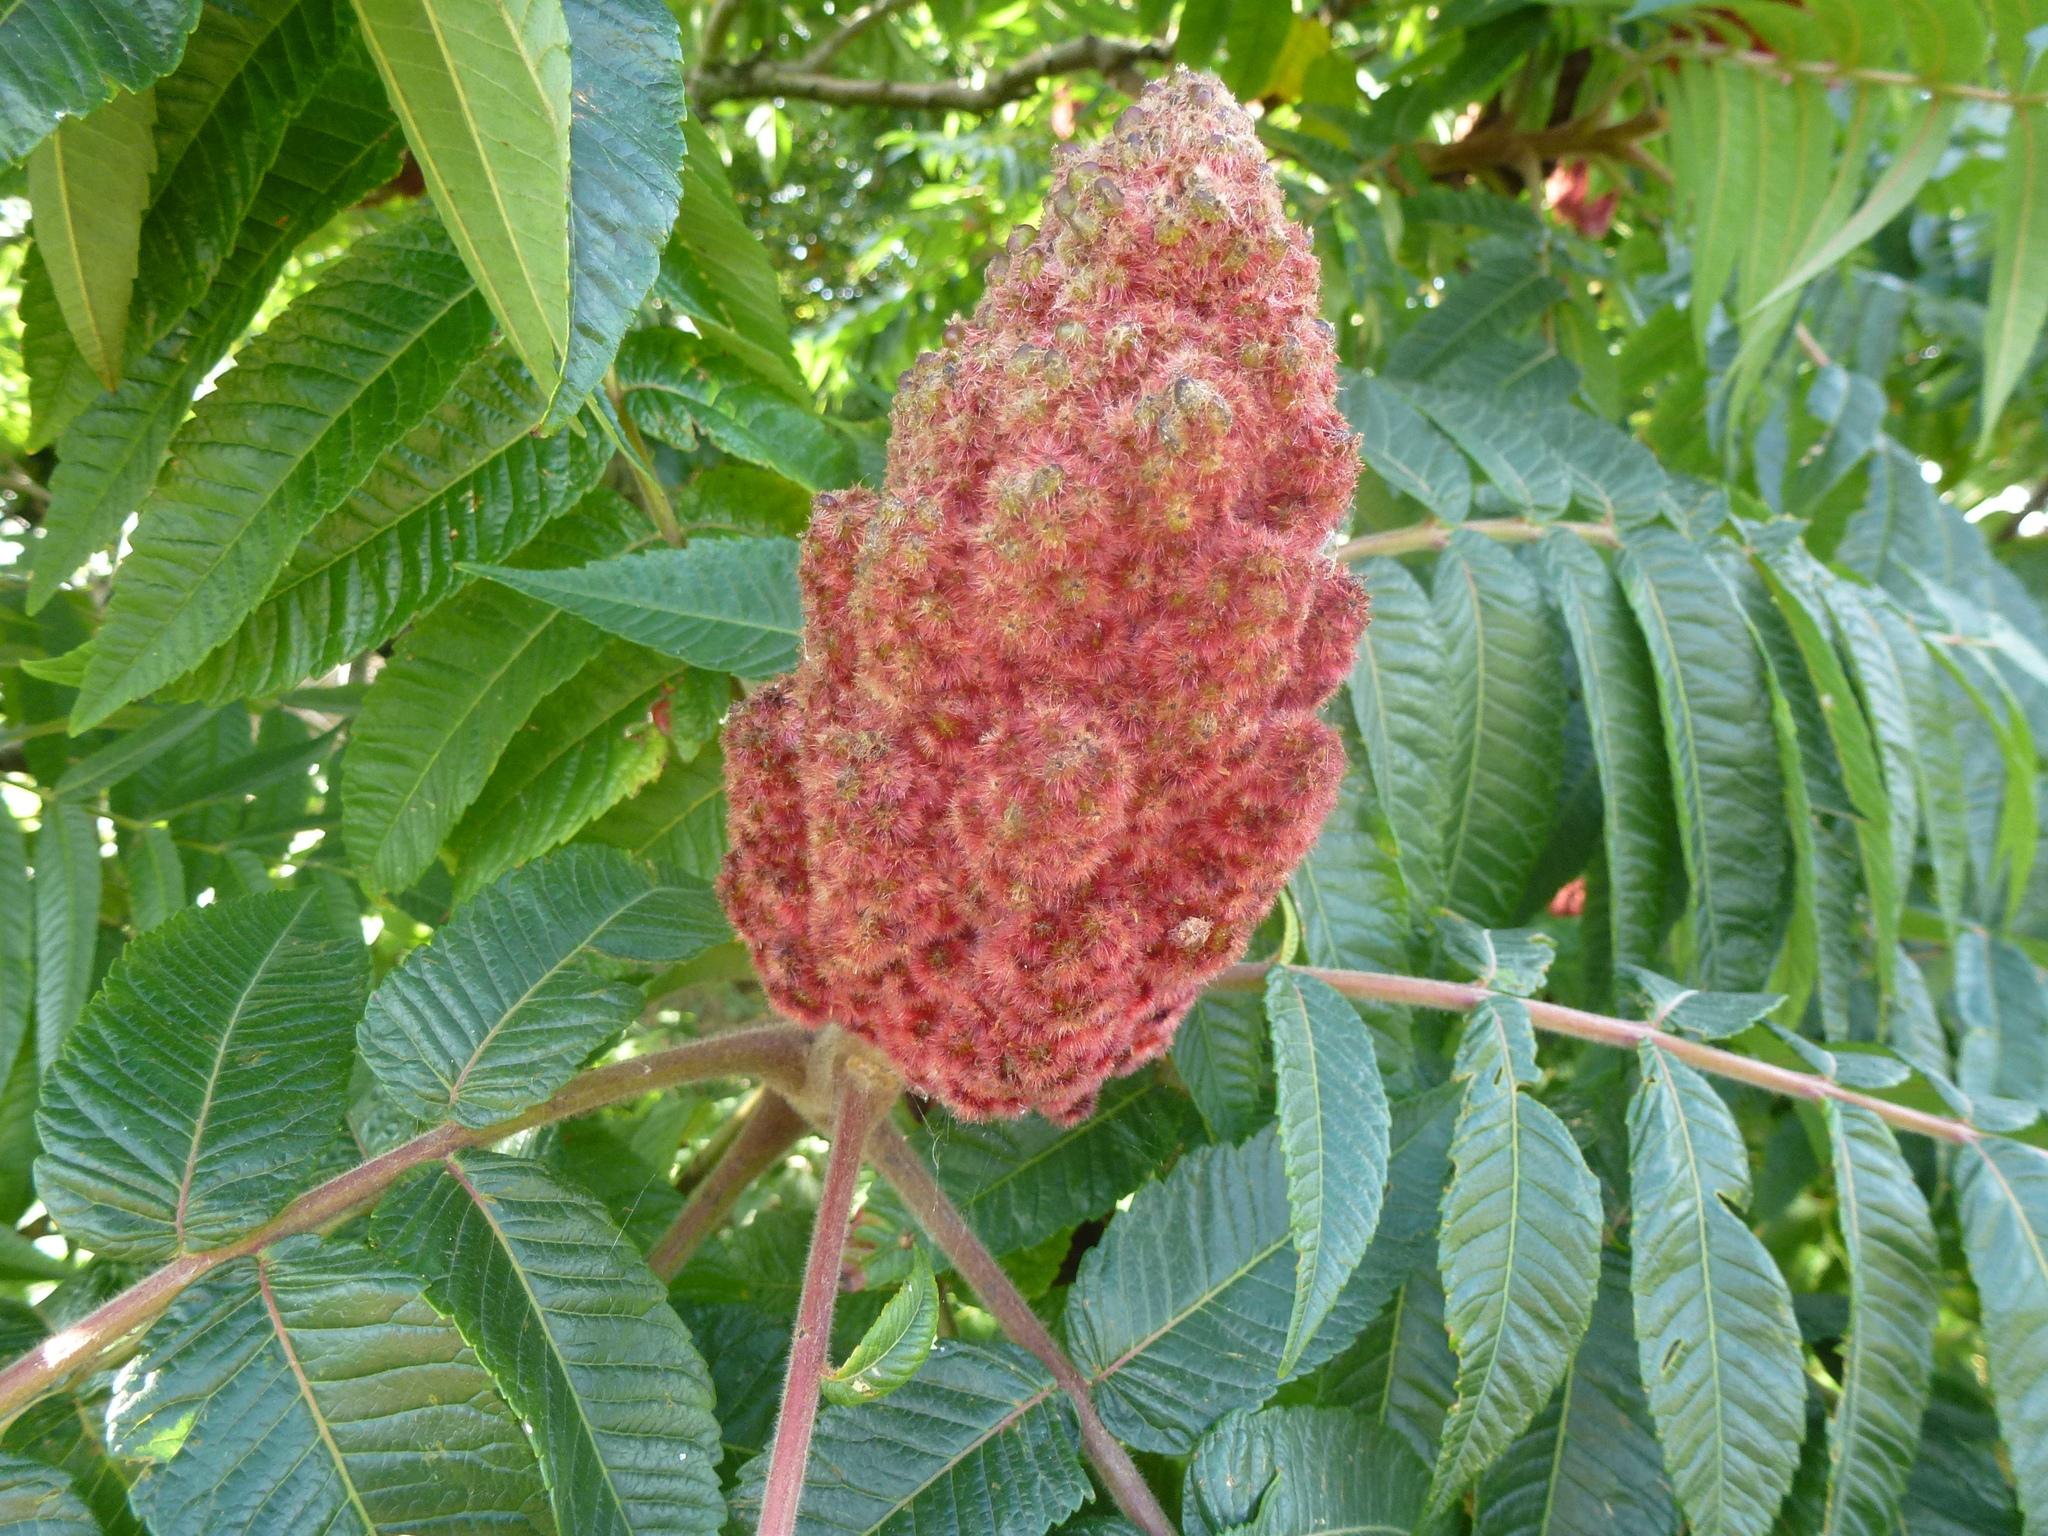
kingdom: Plantae
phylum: Tracheophyta
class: Magnoliopsida
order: Sapindales
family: Anacardiaceae
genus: Rhus
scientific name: Rhus typhina
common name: Staghorn sumac
